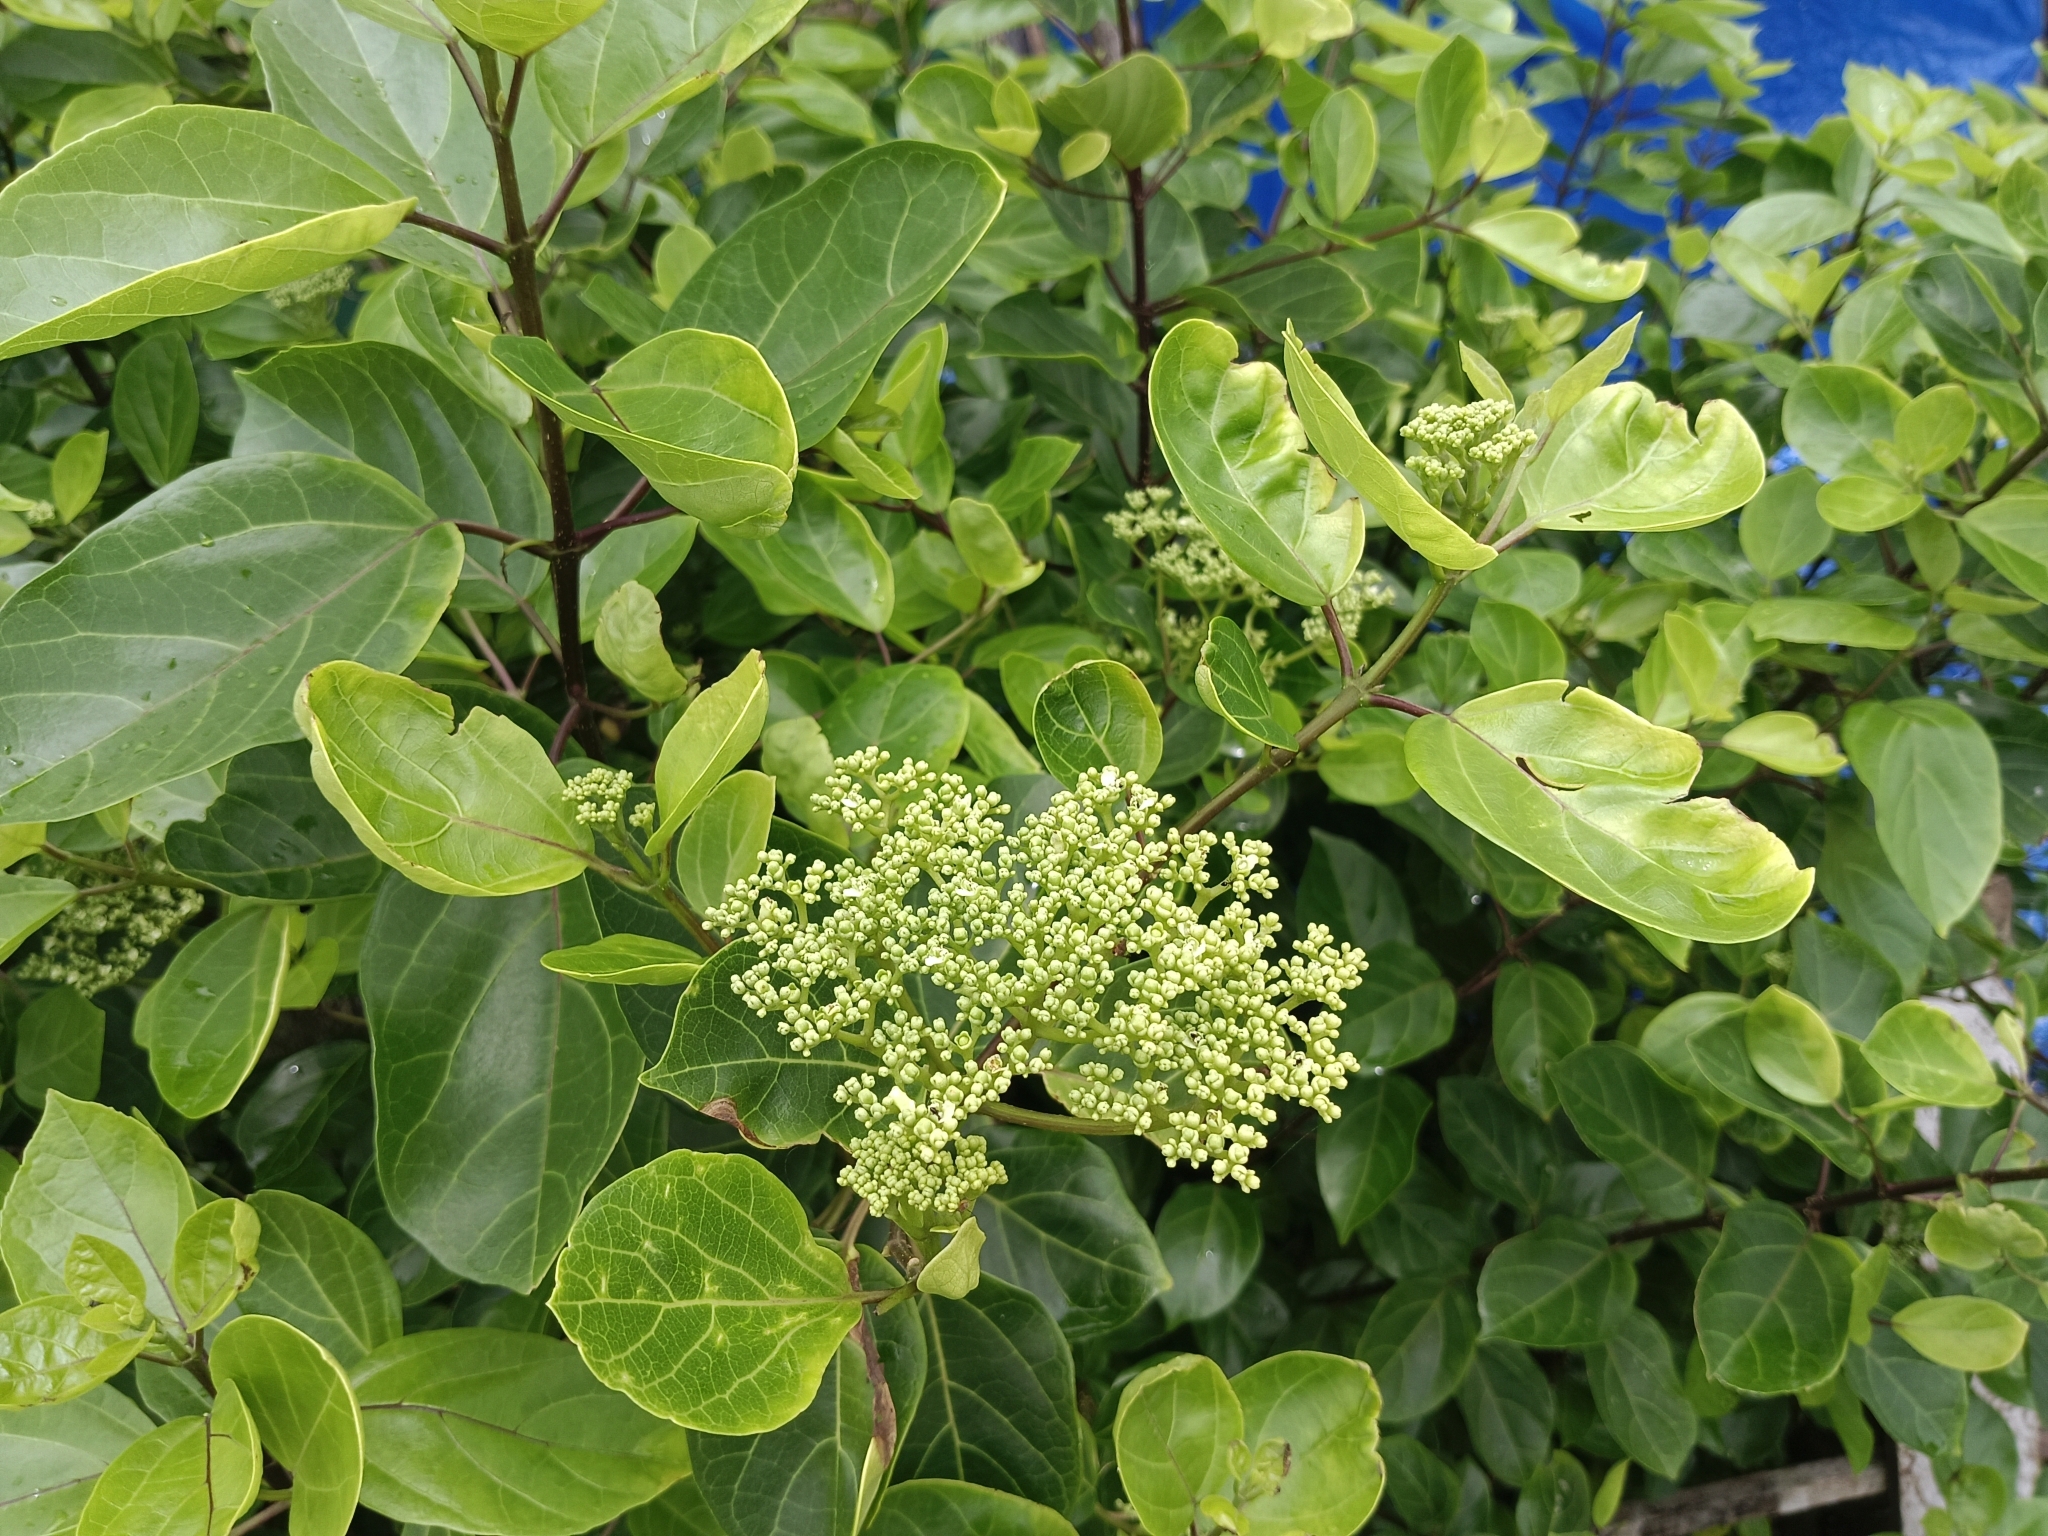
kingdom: Plantae
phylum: Tracheophyta
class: Magnoliopsida
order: Lamiales
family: Lamiaceae
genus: Premna
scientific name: Premna serratifolia
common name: Bastard guelder
